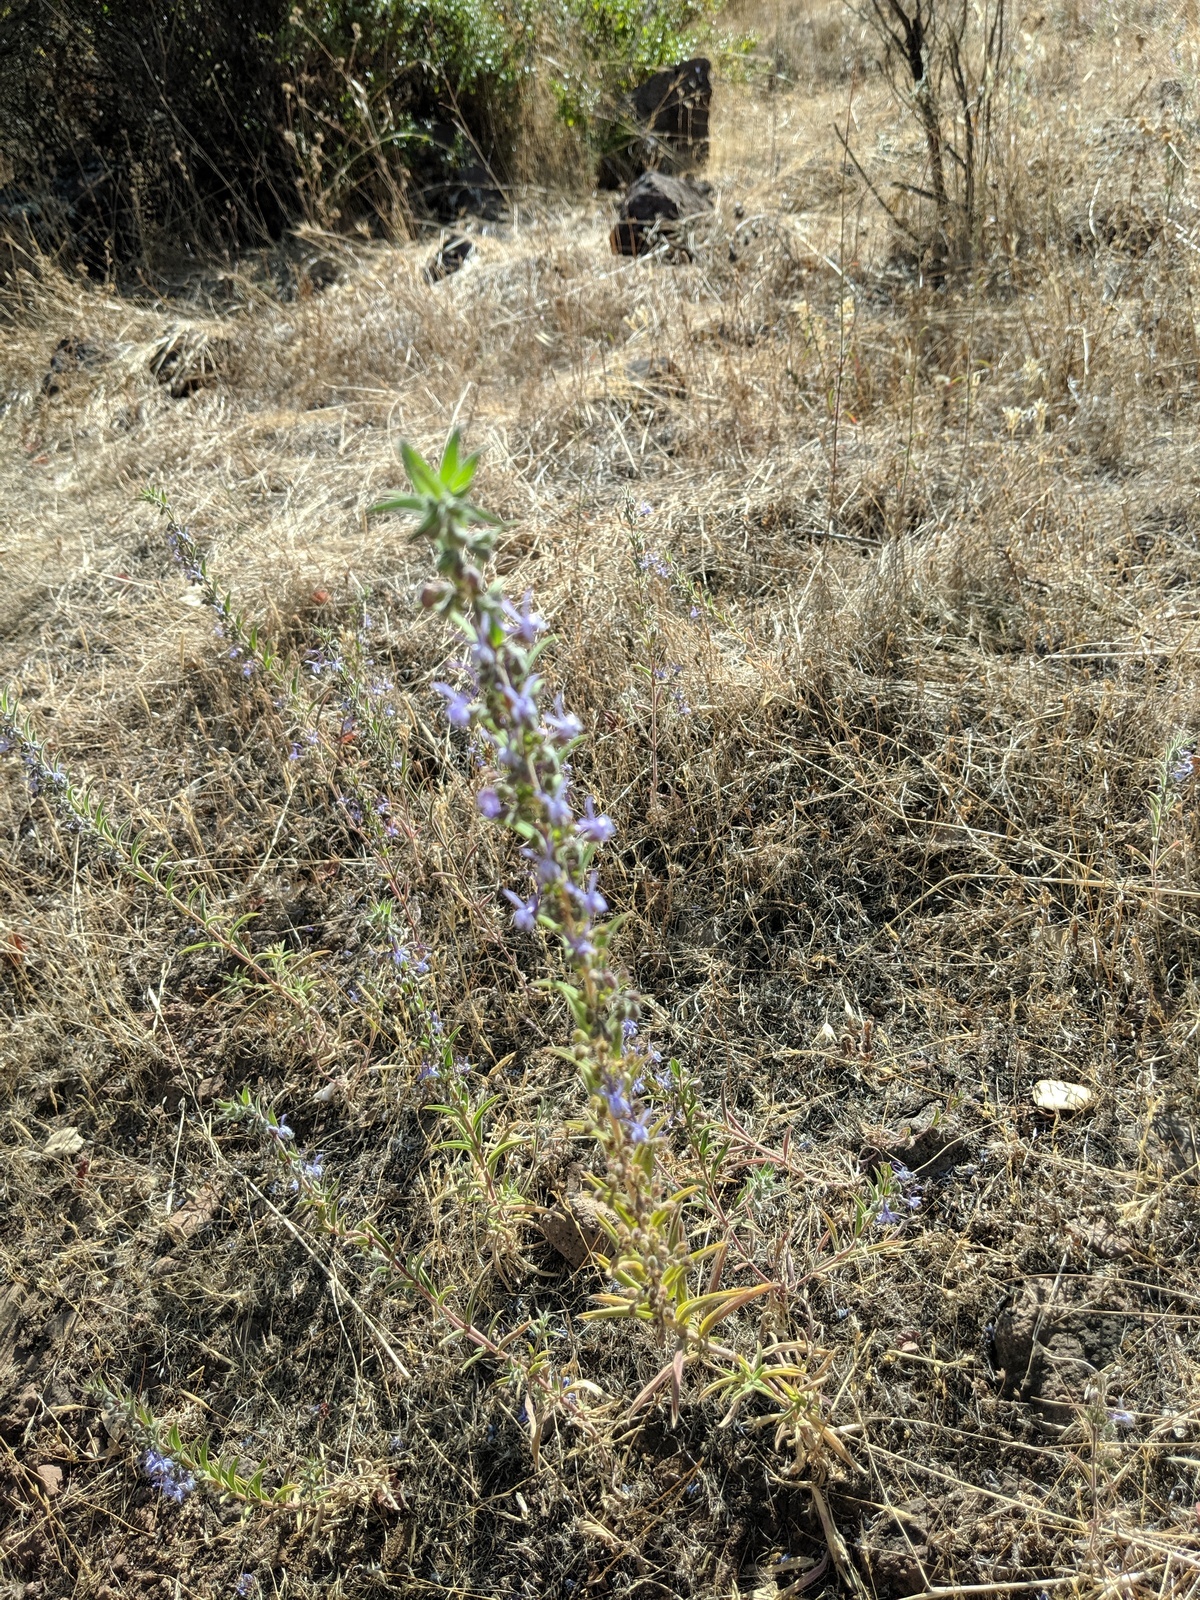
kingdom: Plantae
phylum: Tracheophyta
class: Magnoliopsida
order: Lamiales
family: Lamiaceae
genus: Trichostema
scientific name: Trichostema lanceolatum
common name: Vinegar-weed
